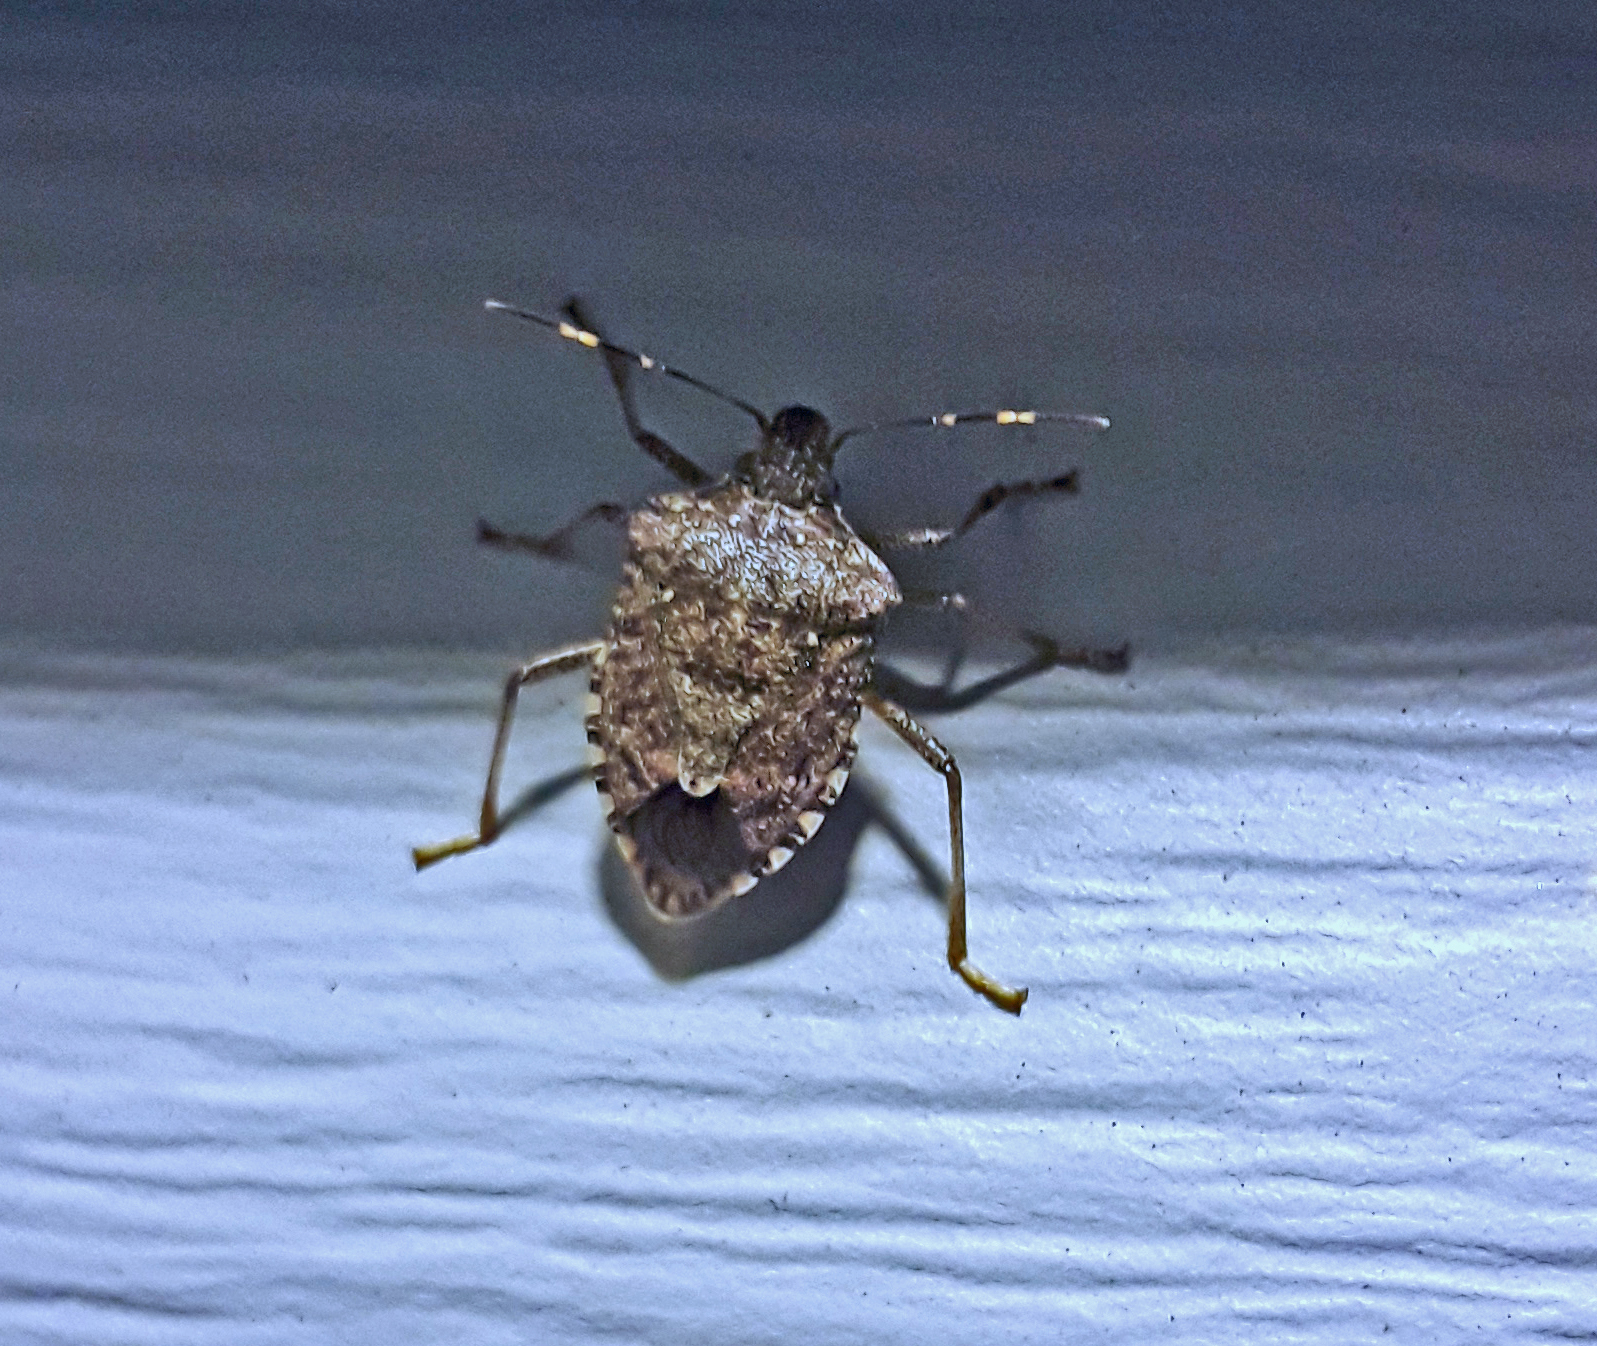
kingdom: Animalia
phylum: Arthropoda
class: Insecta
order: Hemiptera
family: Pentatomidae
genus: Halyomorpha
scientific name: Halyomorpha halys
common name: Brown marmorated stink bug
